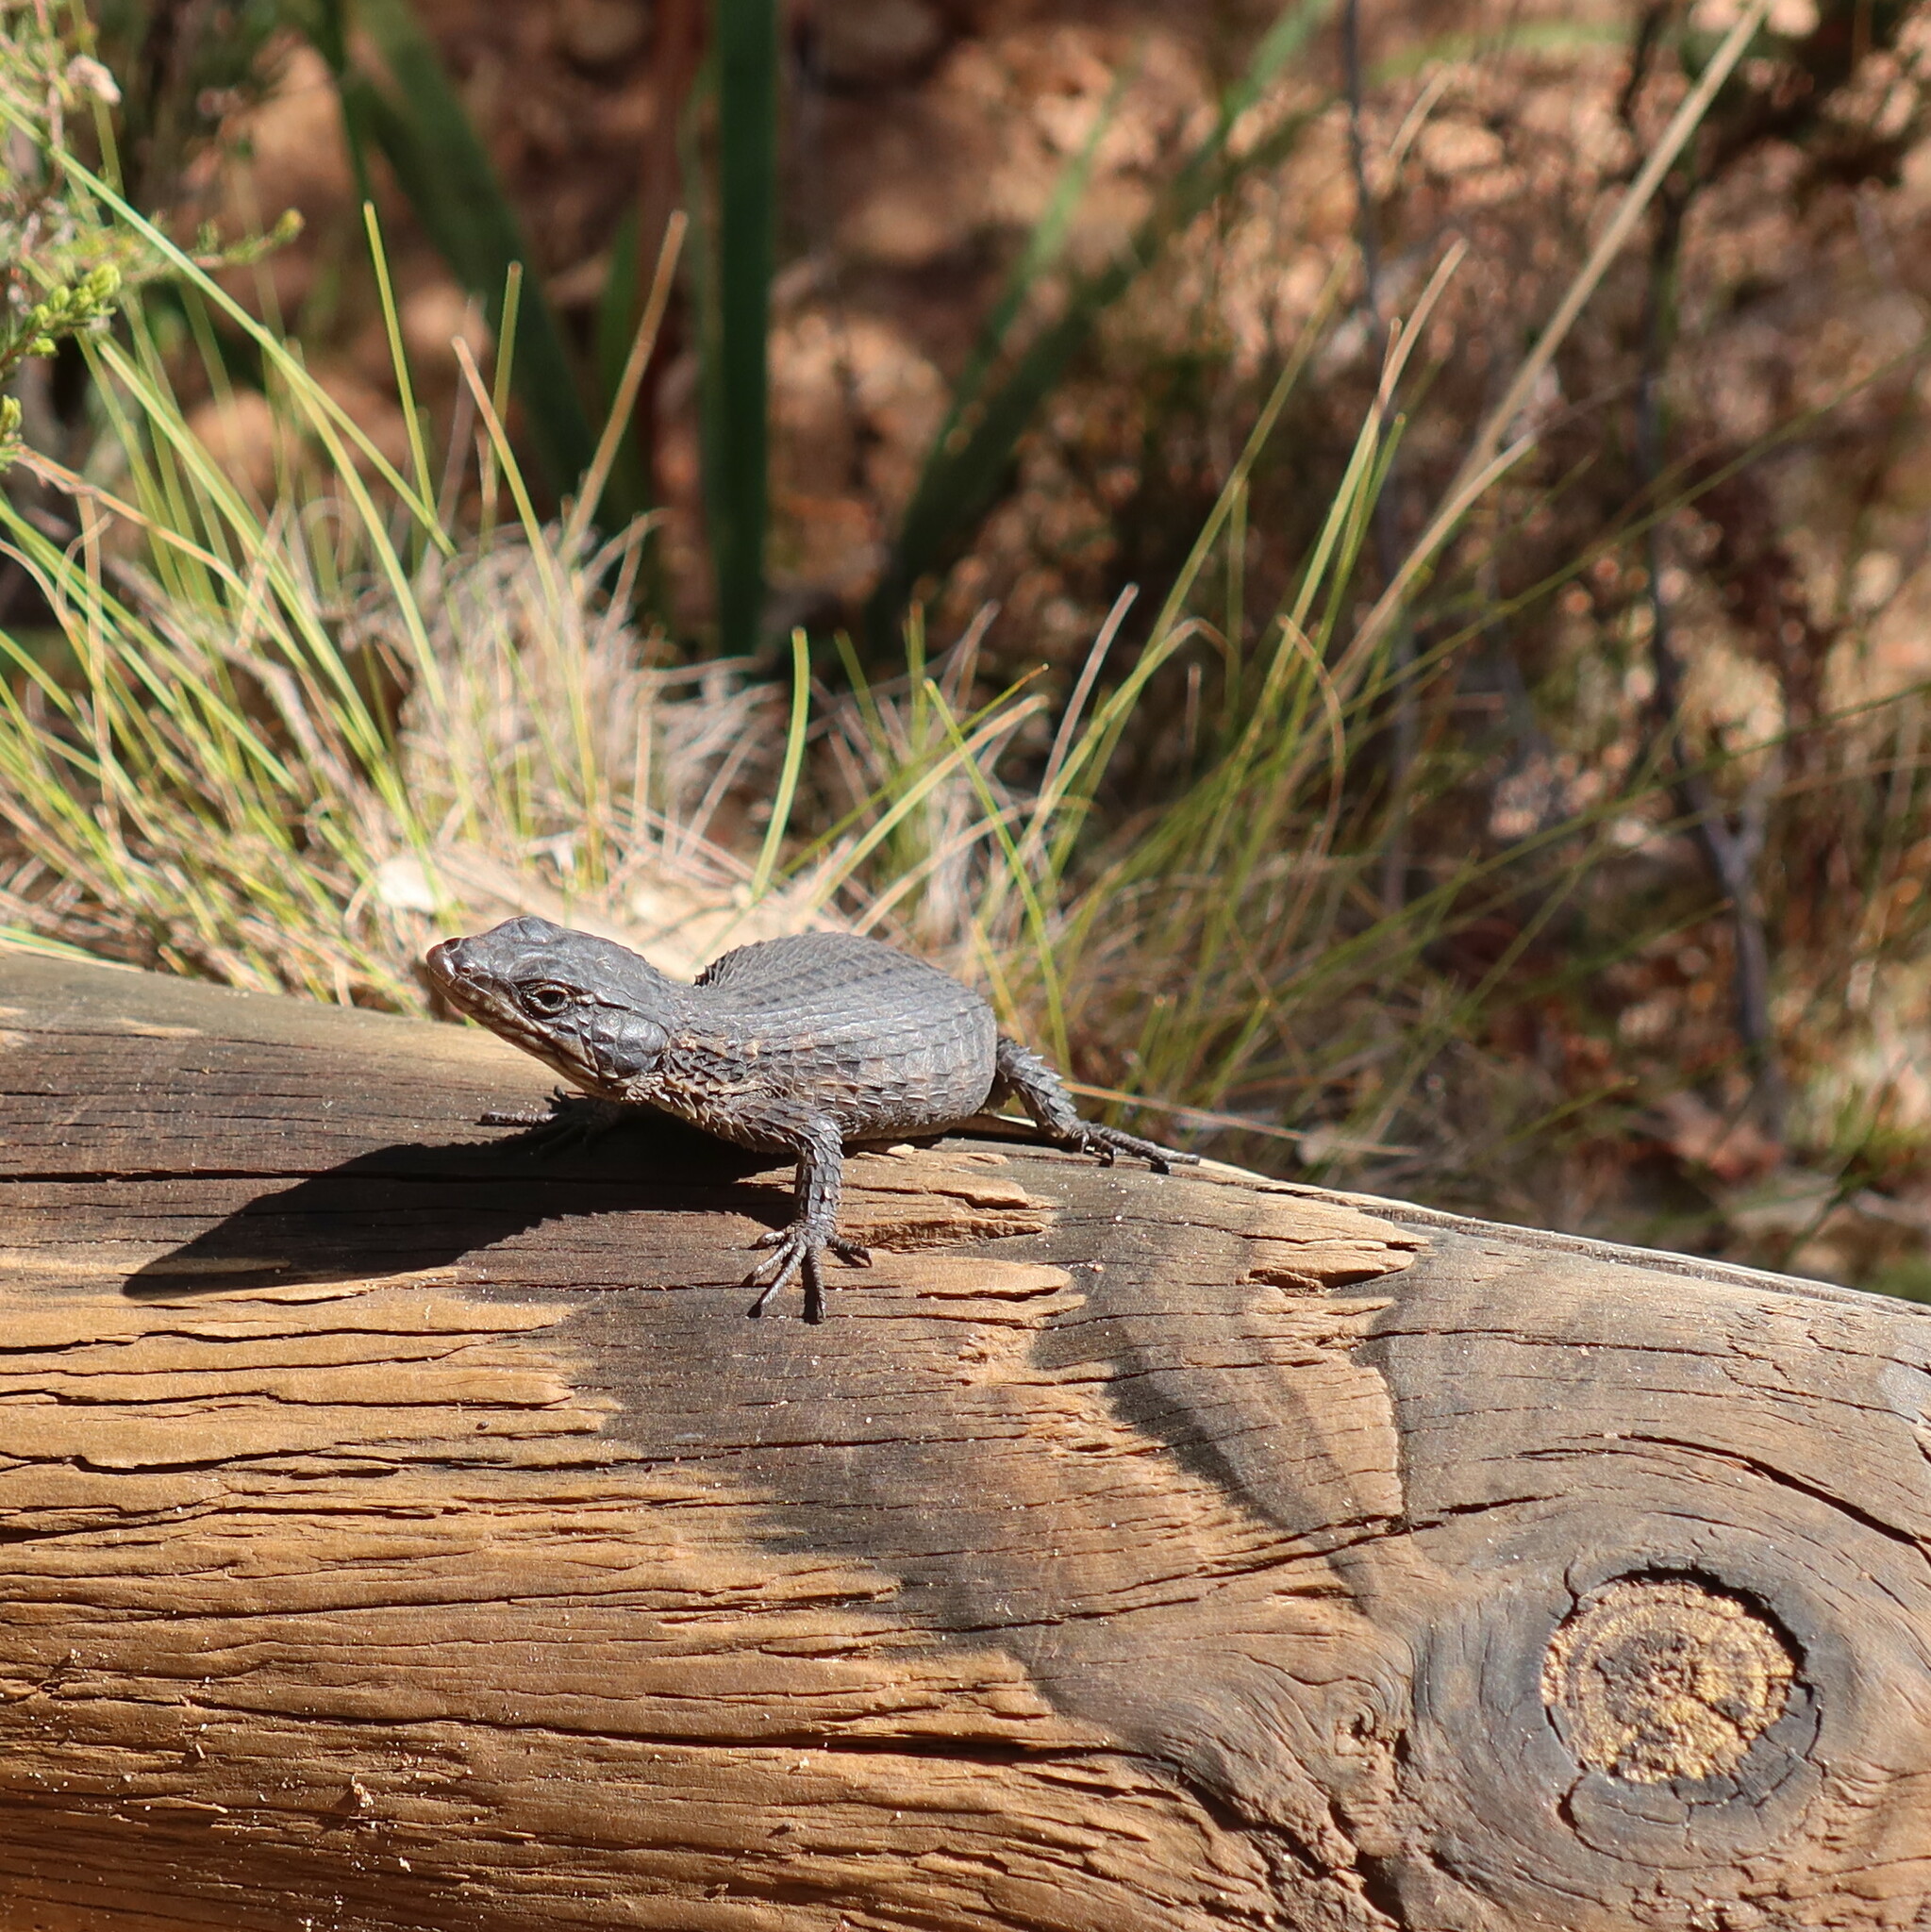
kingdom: Animalia
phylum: Chordata
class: Squamata
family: Cordylidae
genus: Cordylus
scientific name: Cordylus niger
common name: Black girdled lizard
